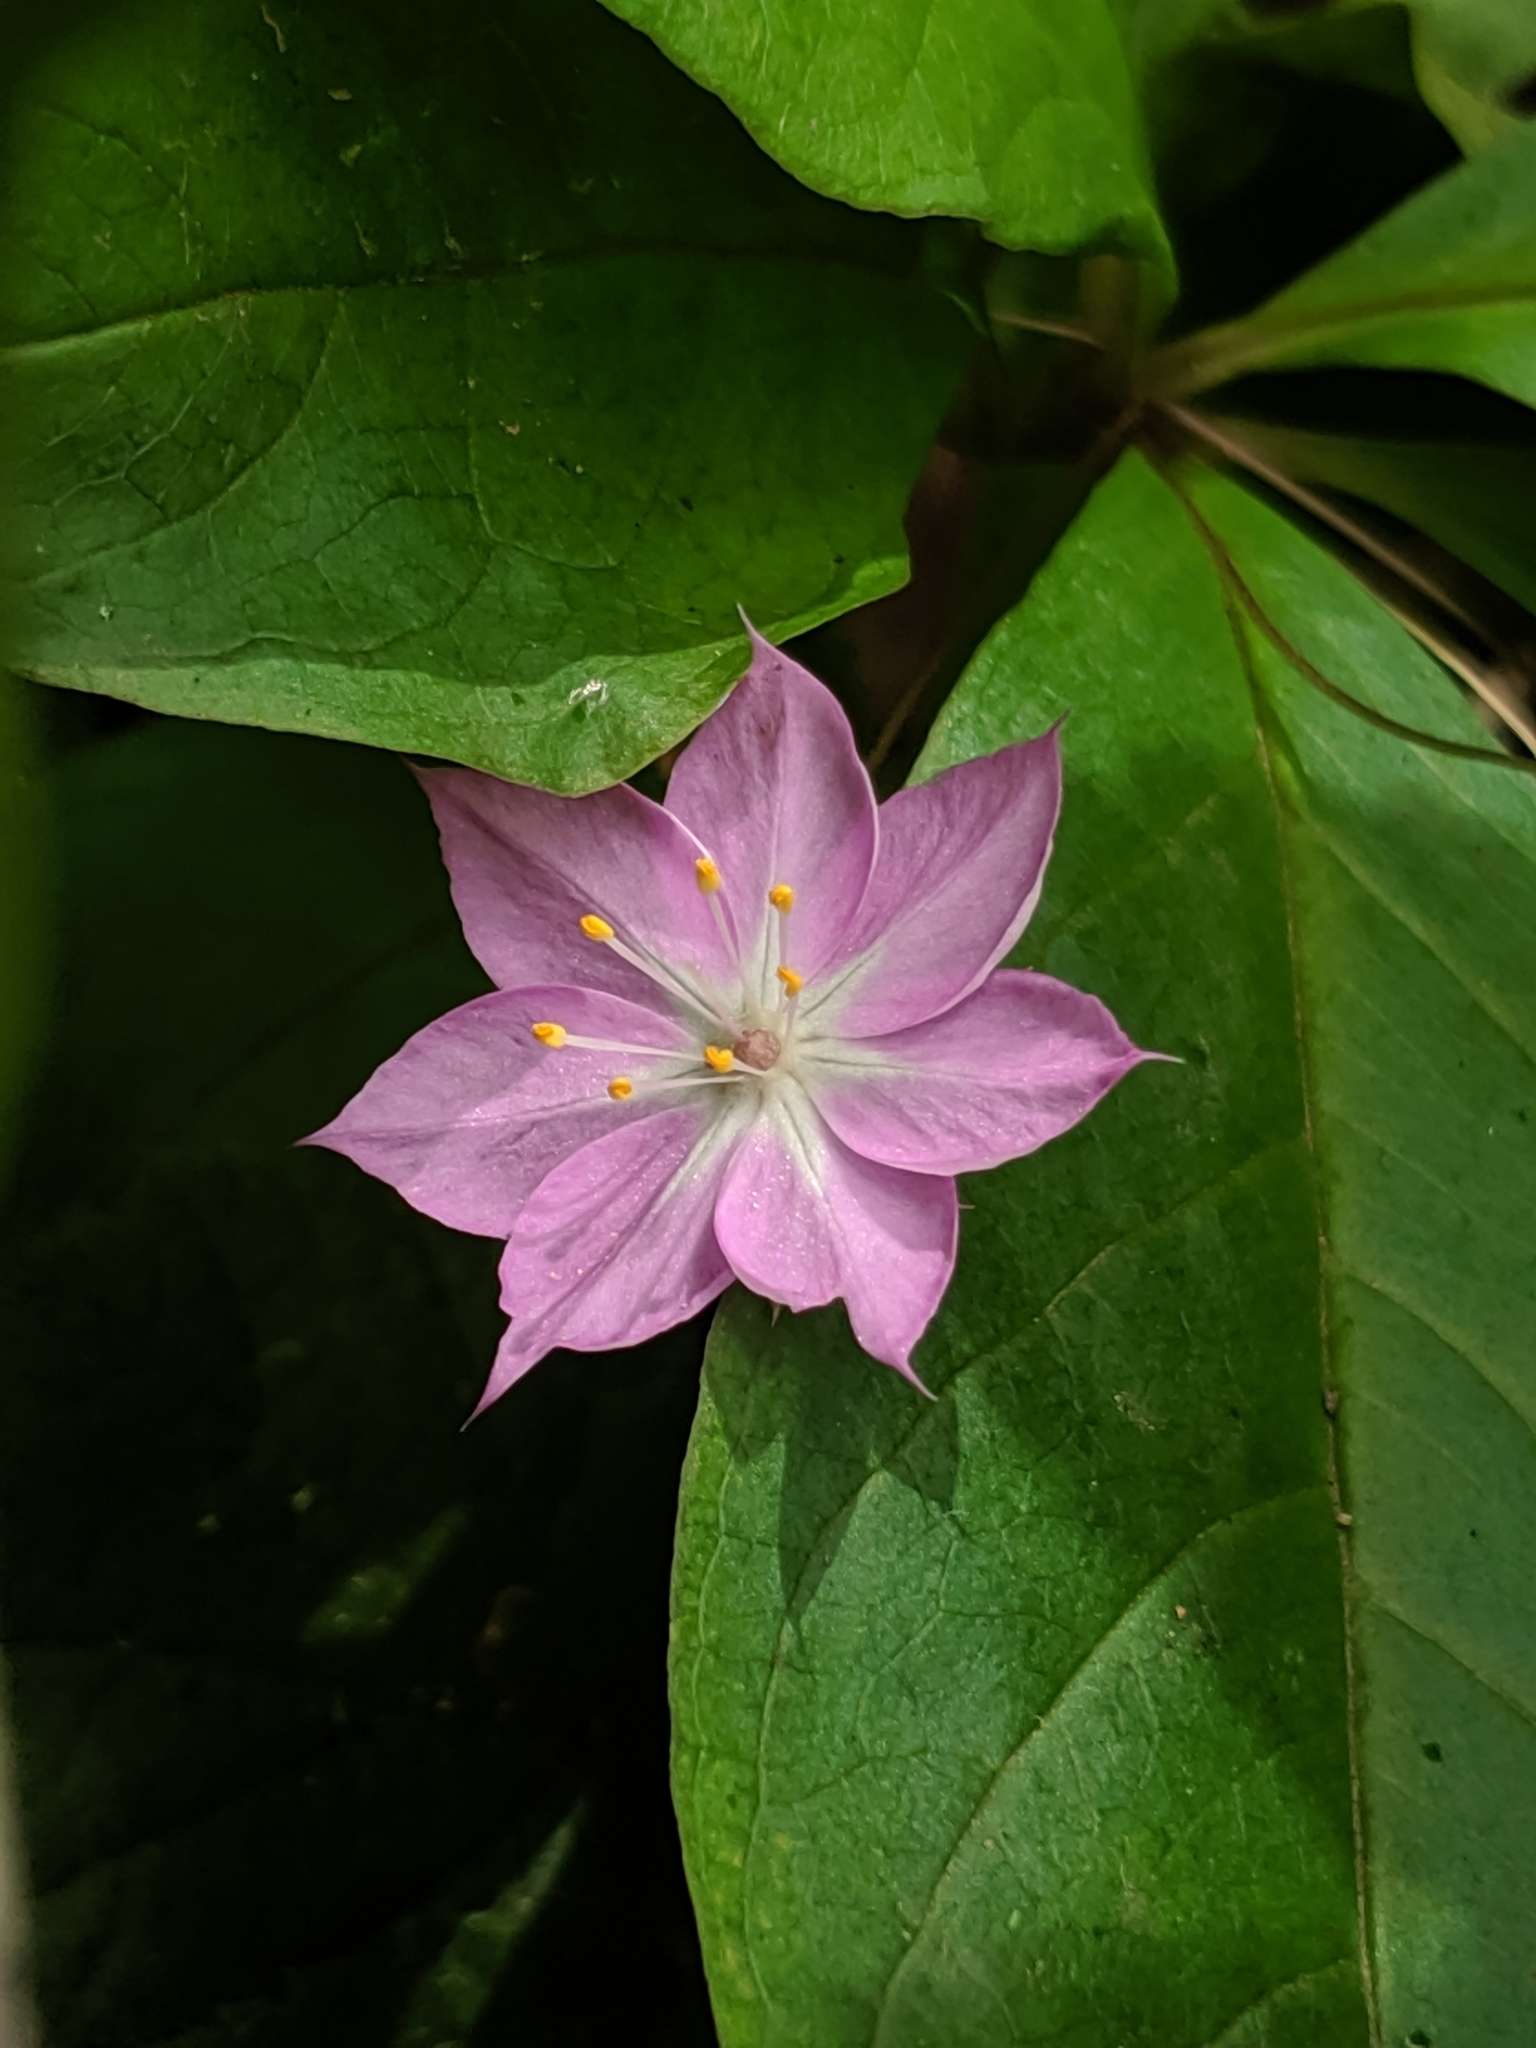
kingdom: Plantae
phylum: Tracheophyta
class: Magnoliopsida
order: Ericales
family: Primulaceae
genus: Lysimachia
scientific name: Lysimachia latifolia
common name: Pacific starflower
